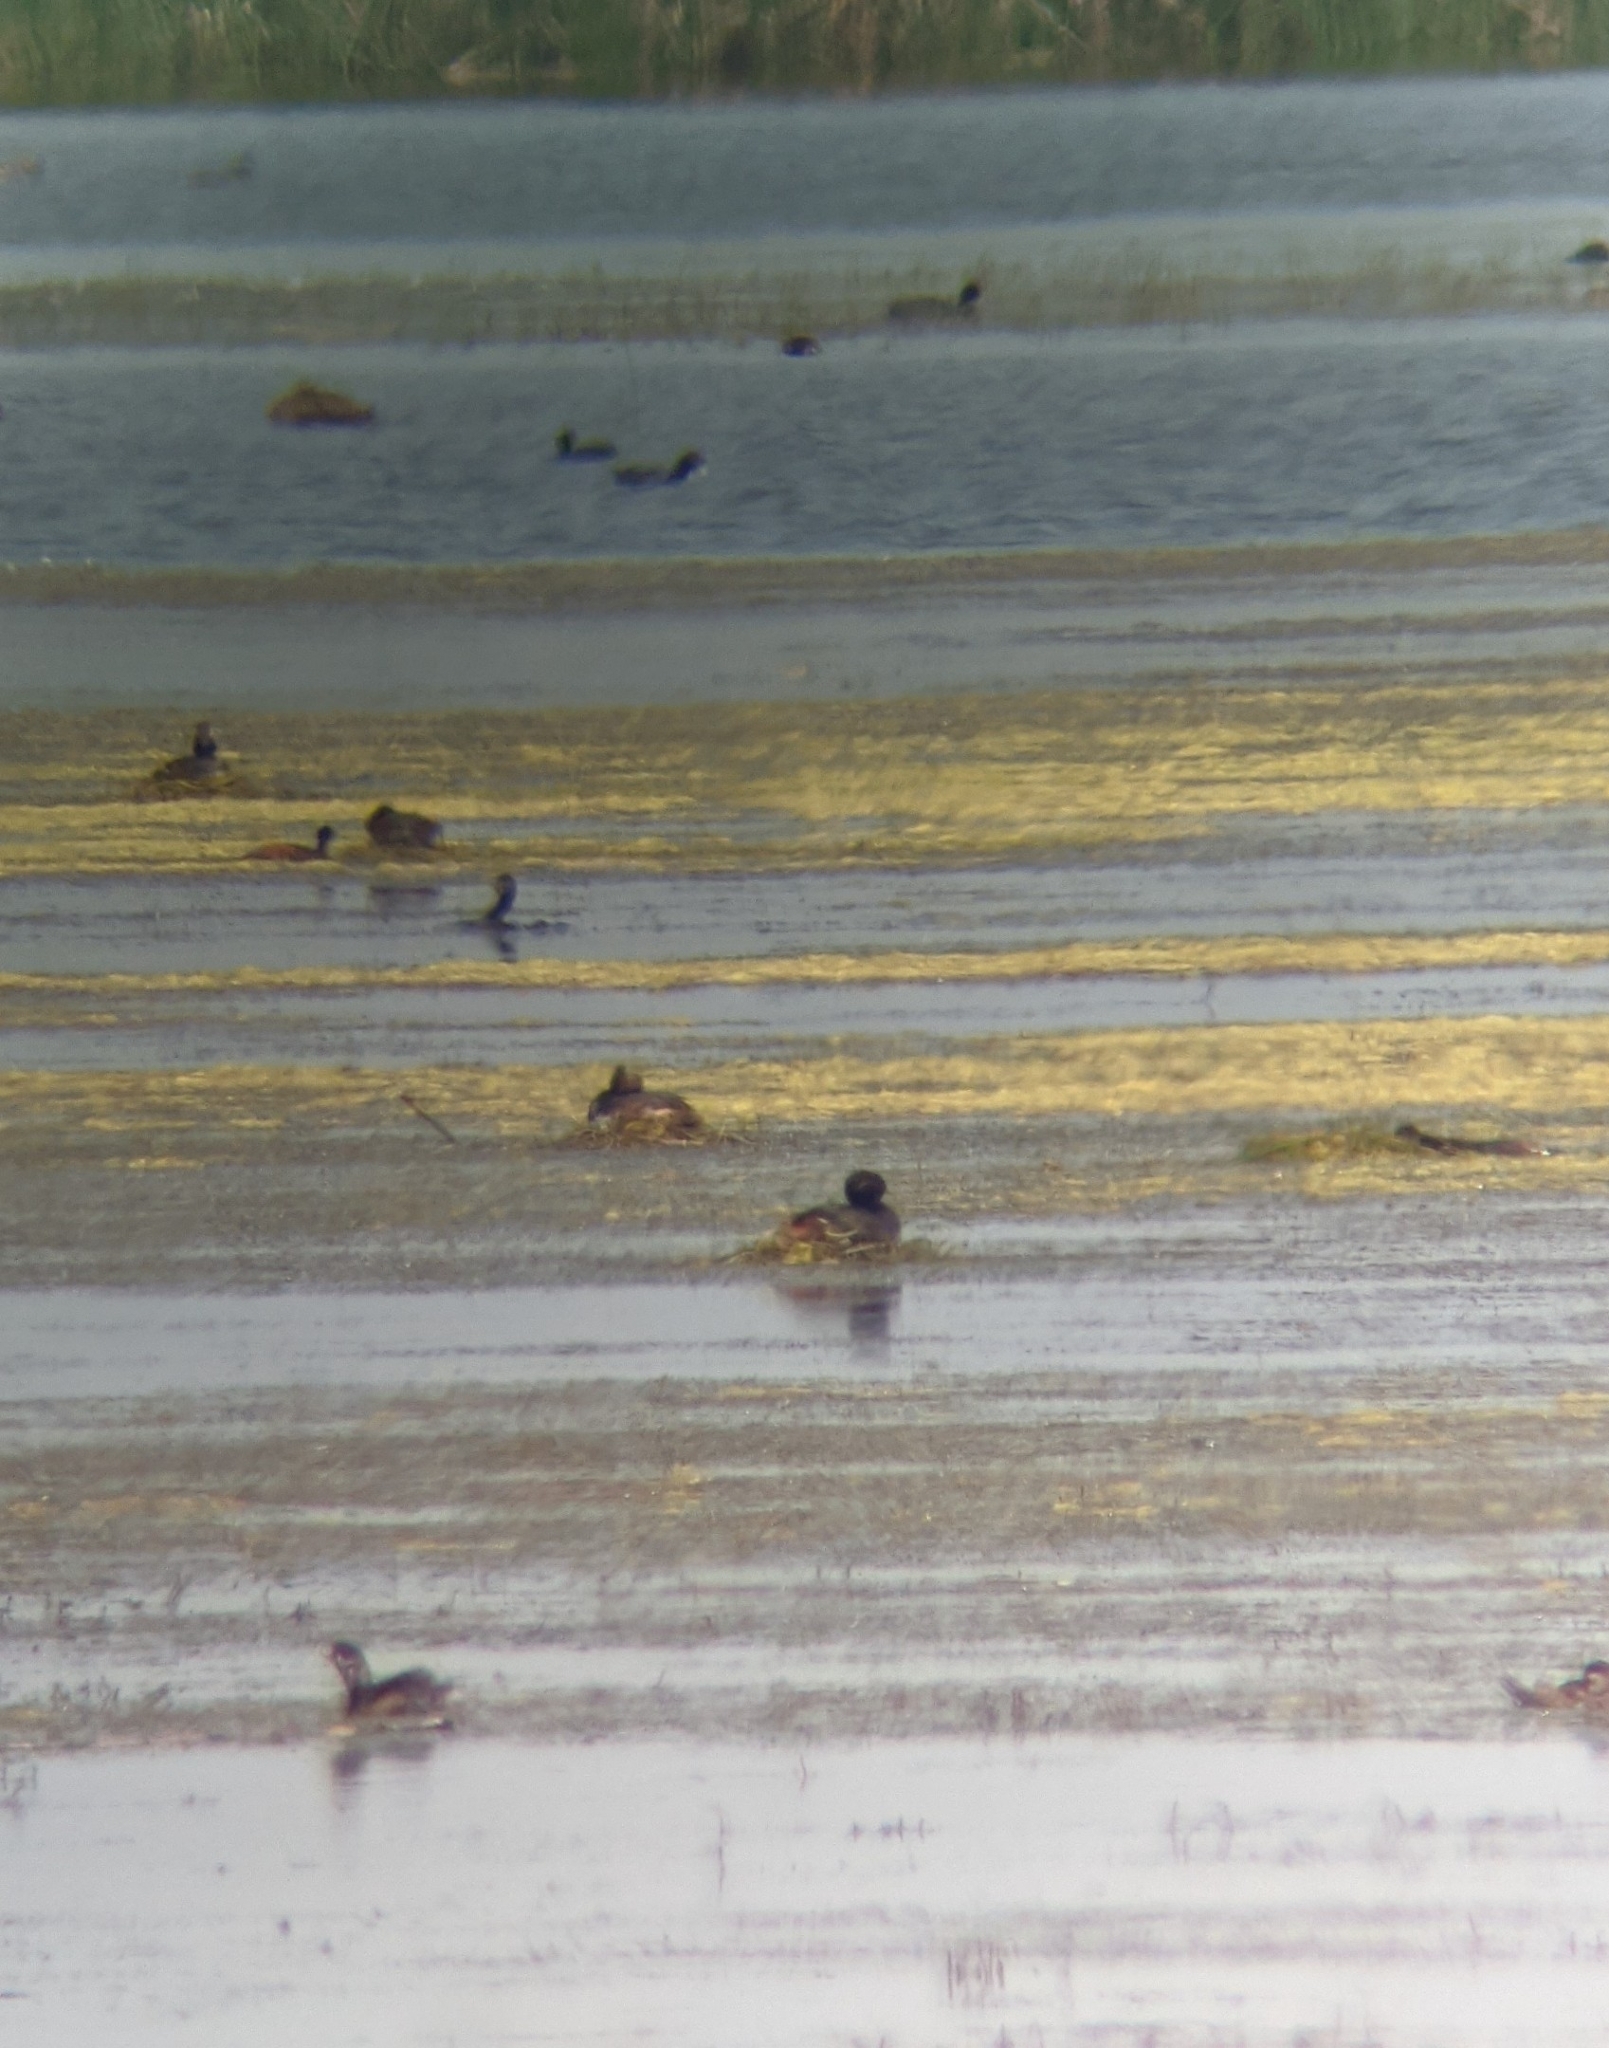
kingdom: Animalia
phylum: Chordata
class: Aves
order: Podicipediformes
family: Podicipedidae
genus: Podiceps
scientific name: Podiceps nigricollis
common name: Black-necked grebe
